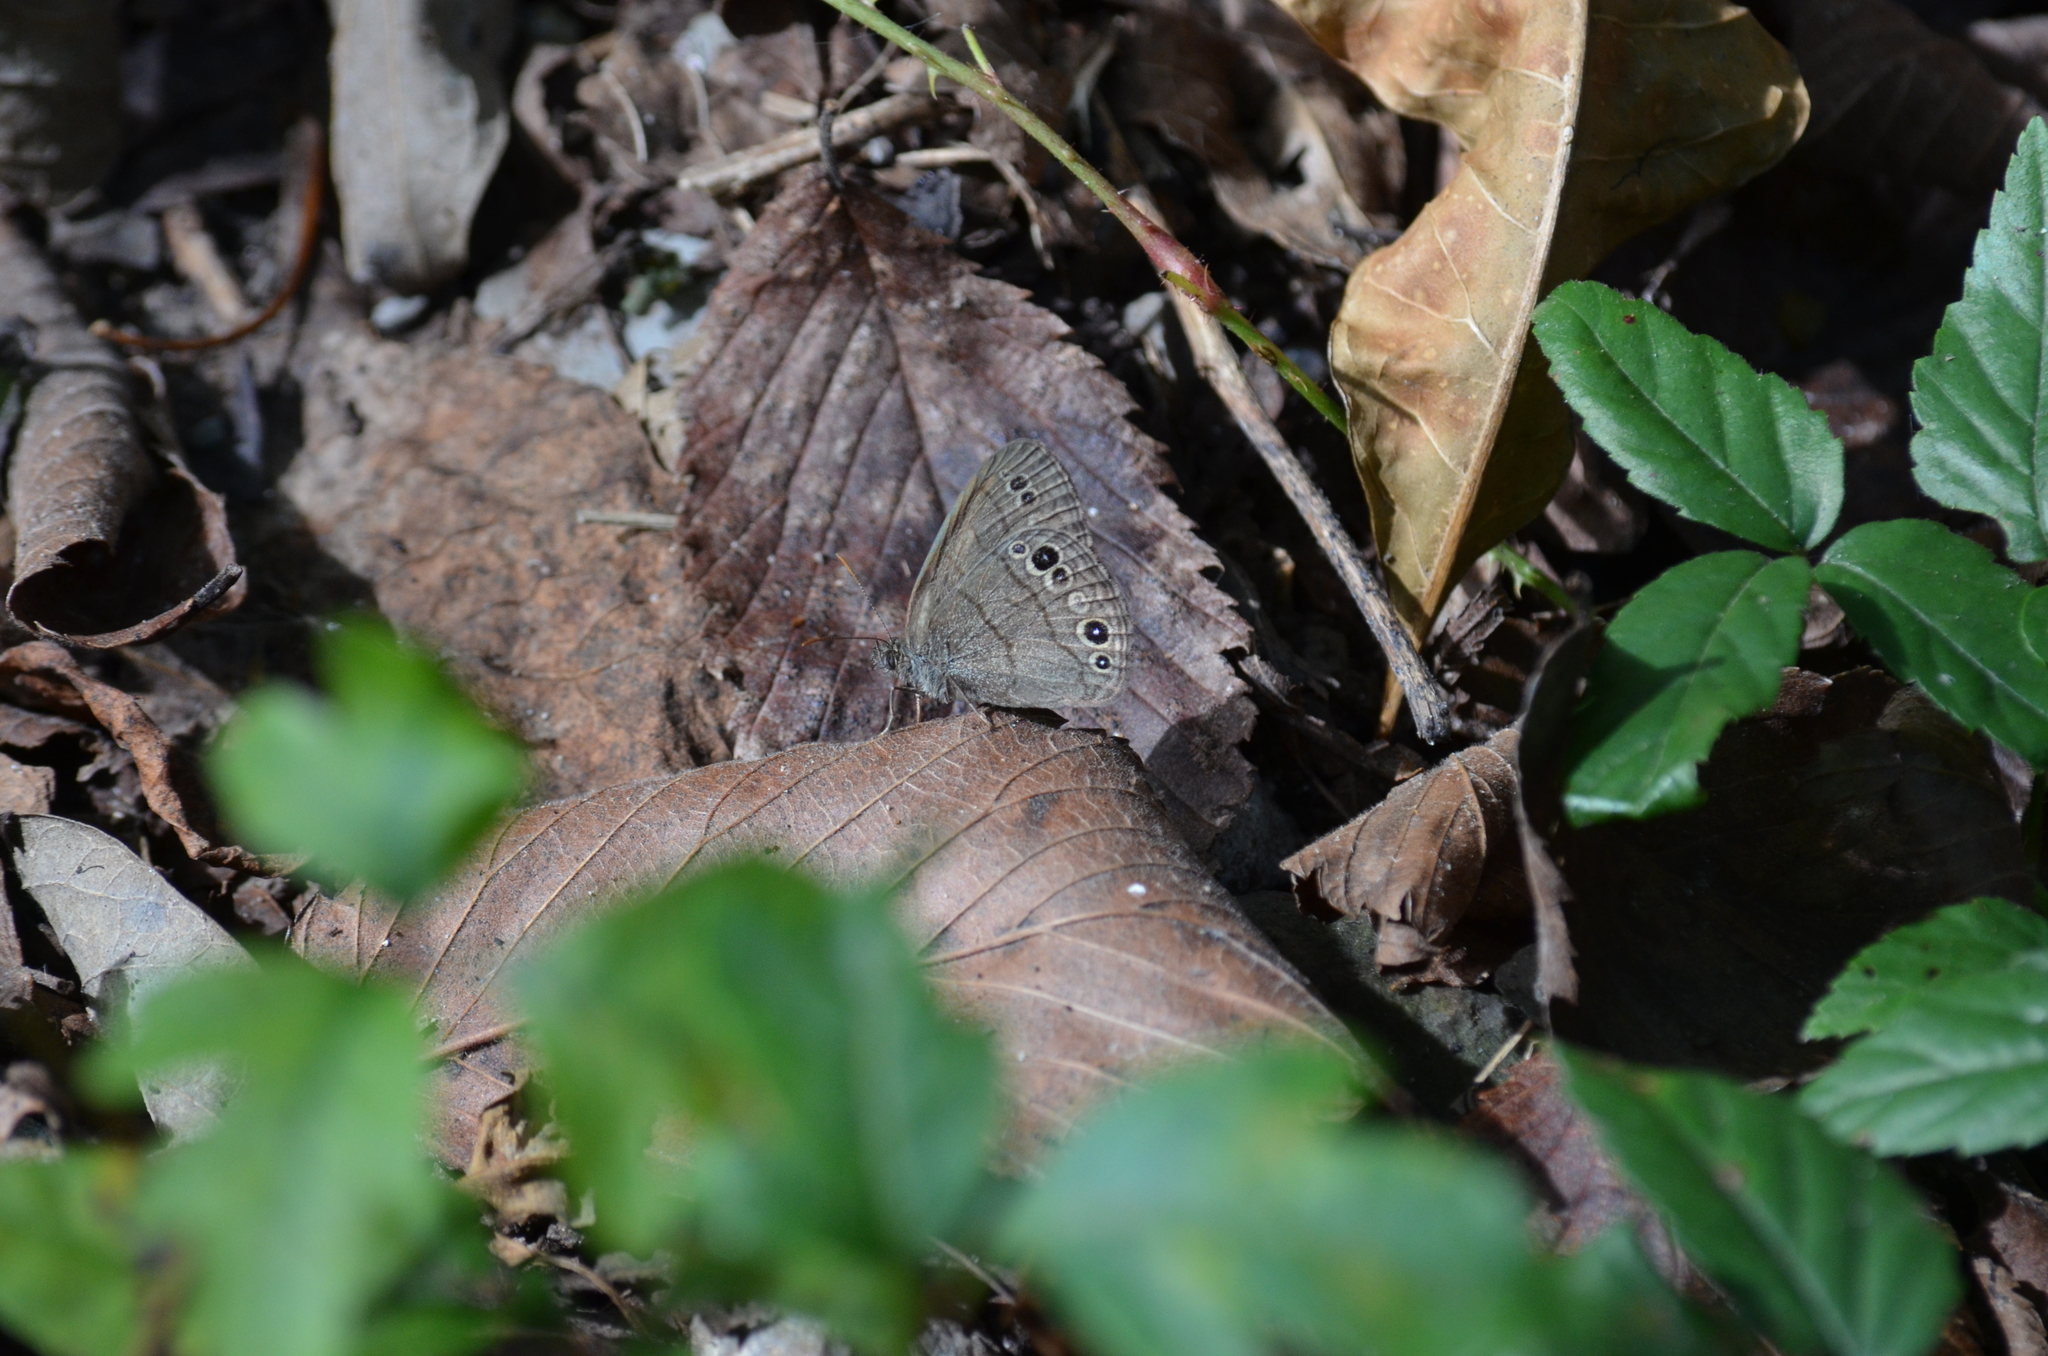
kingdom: Animalia
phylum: Arthropoda
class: Insecta
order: Lepidoptera
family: Nymphalidae
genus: Hermeuptychia
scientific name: Hermeuptychia hermes
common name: Hermes satyr
